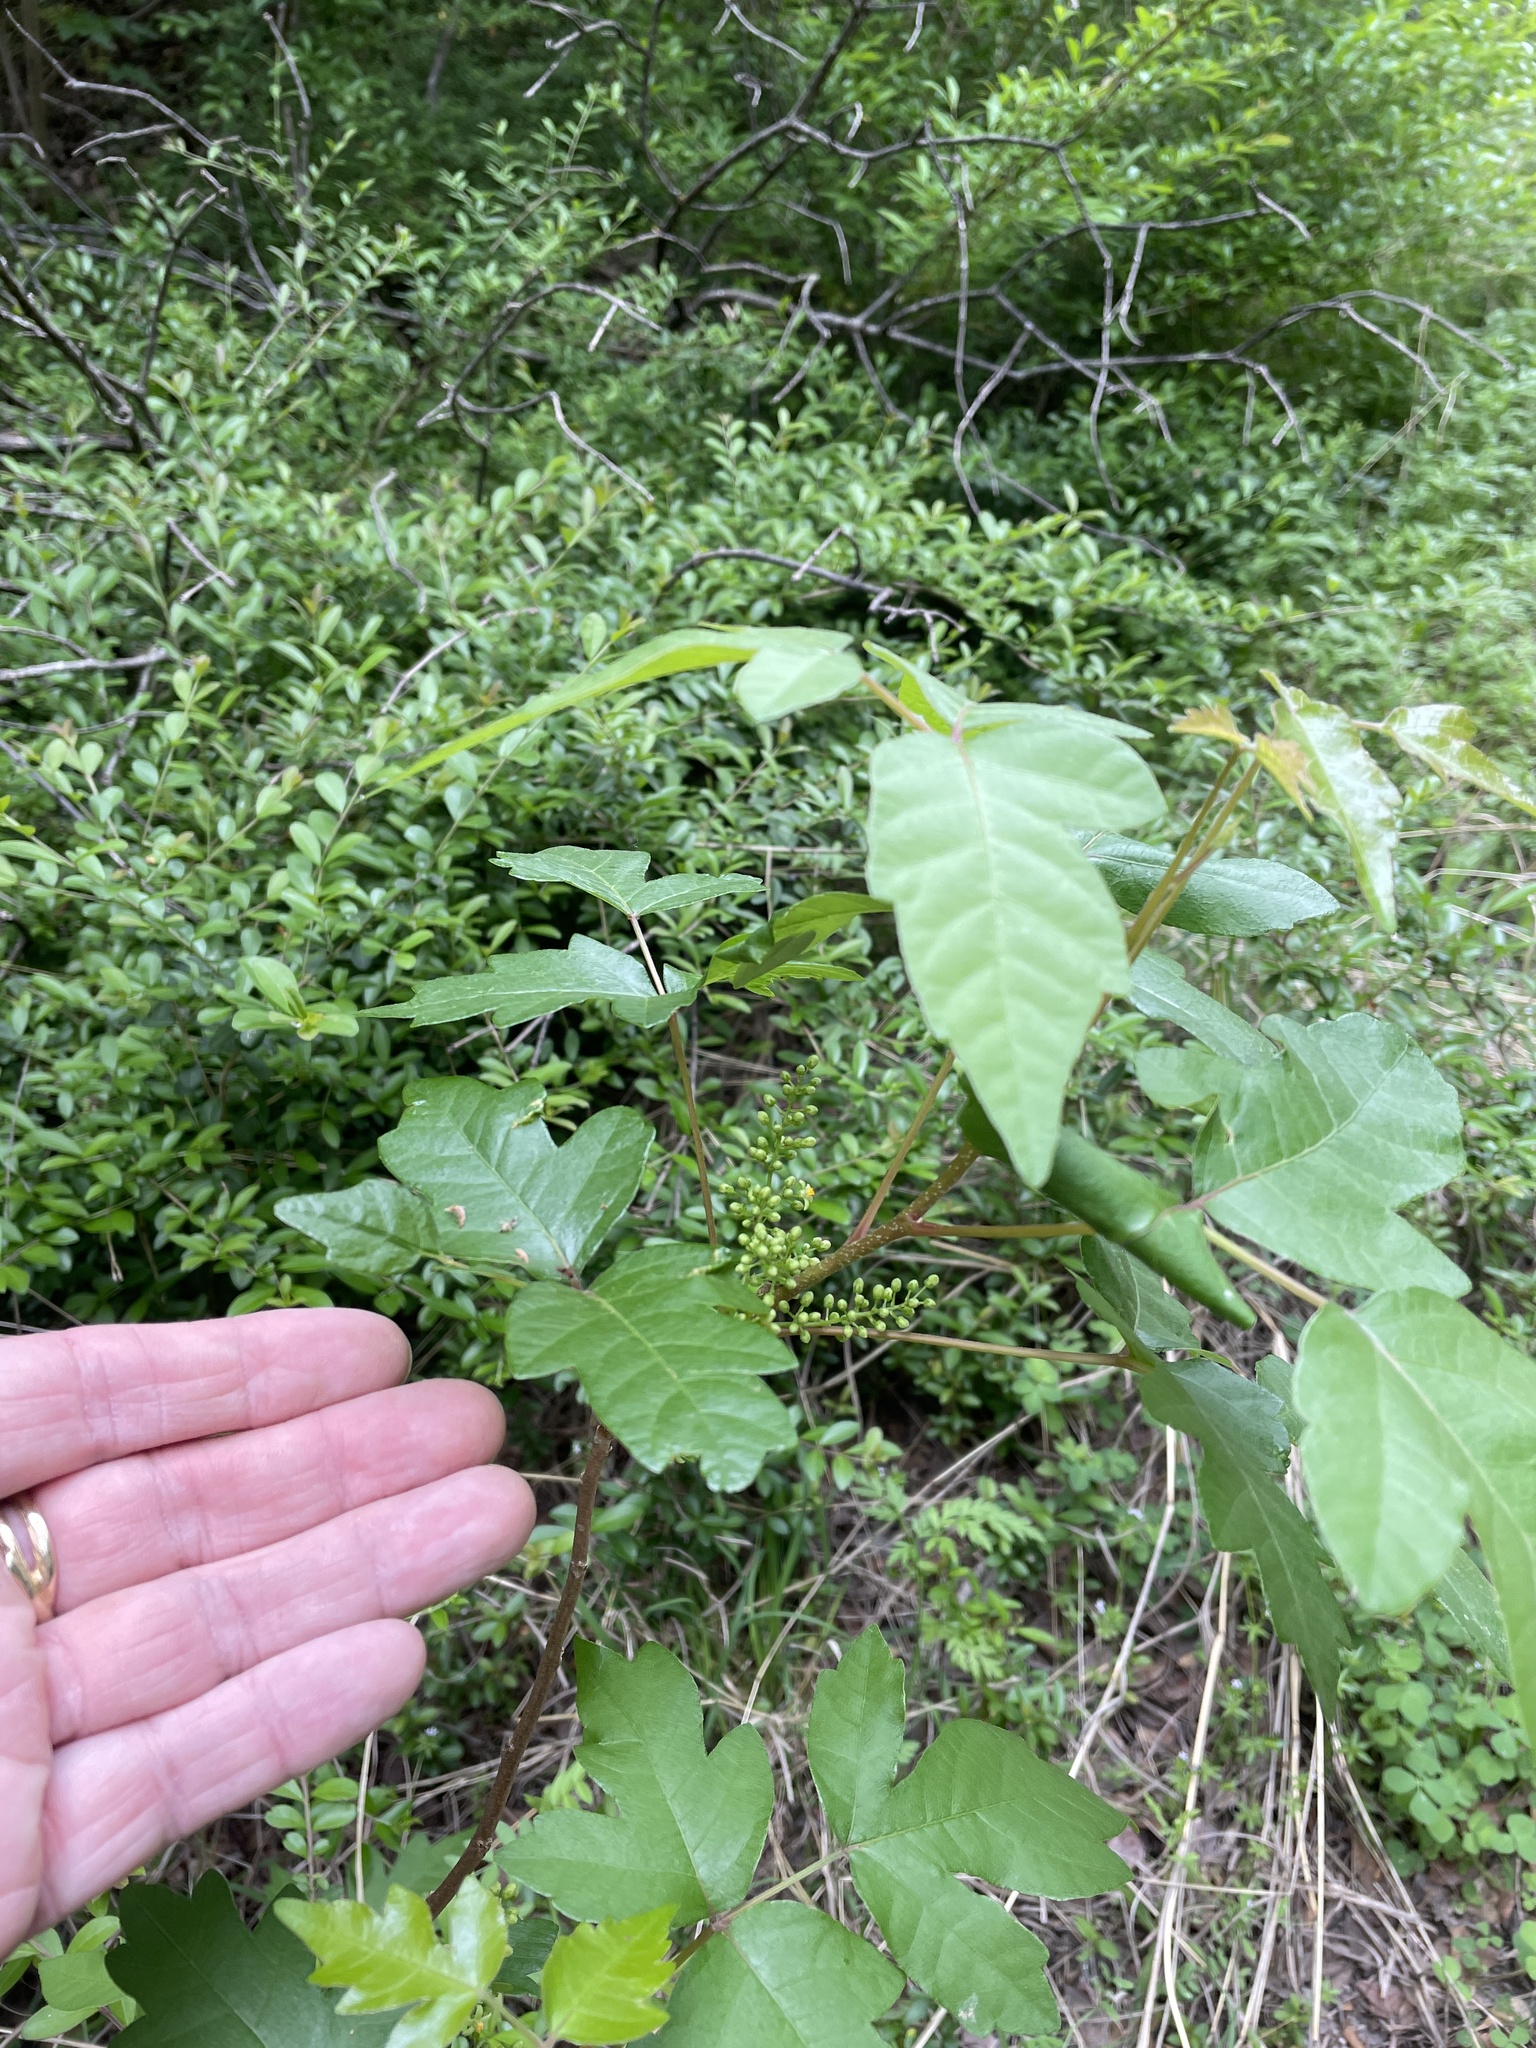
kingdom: Plantae
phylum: Tracheophyta
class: Magnoliopsida
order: Sapindales
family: Anacardiaceae
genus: Toxicodendron
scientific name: Toxicodendron radicans
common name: Poison ivy
